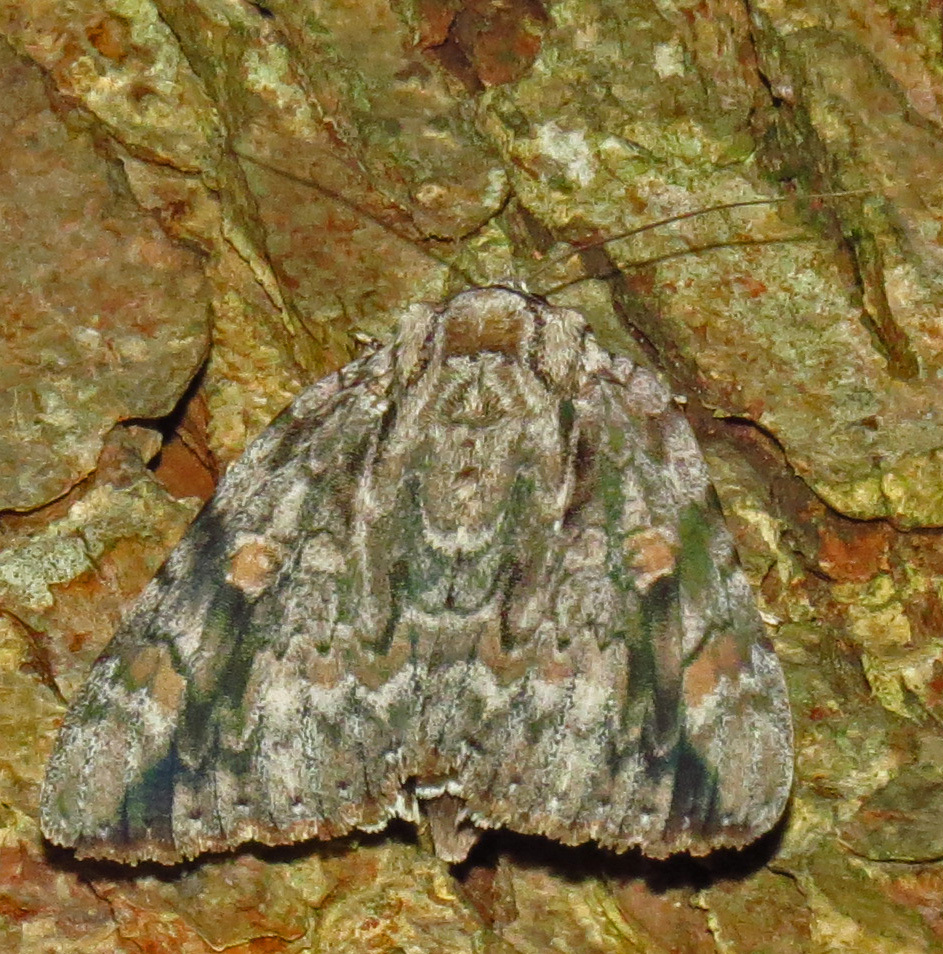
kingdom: Animalia
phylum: Arthropoda
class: Insecta
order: Lepidoptera
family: Erebidae
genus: Catocala
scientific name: Catocala maestosa
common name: Sad underwing
